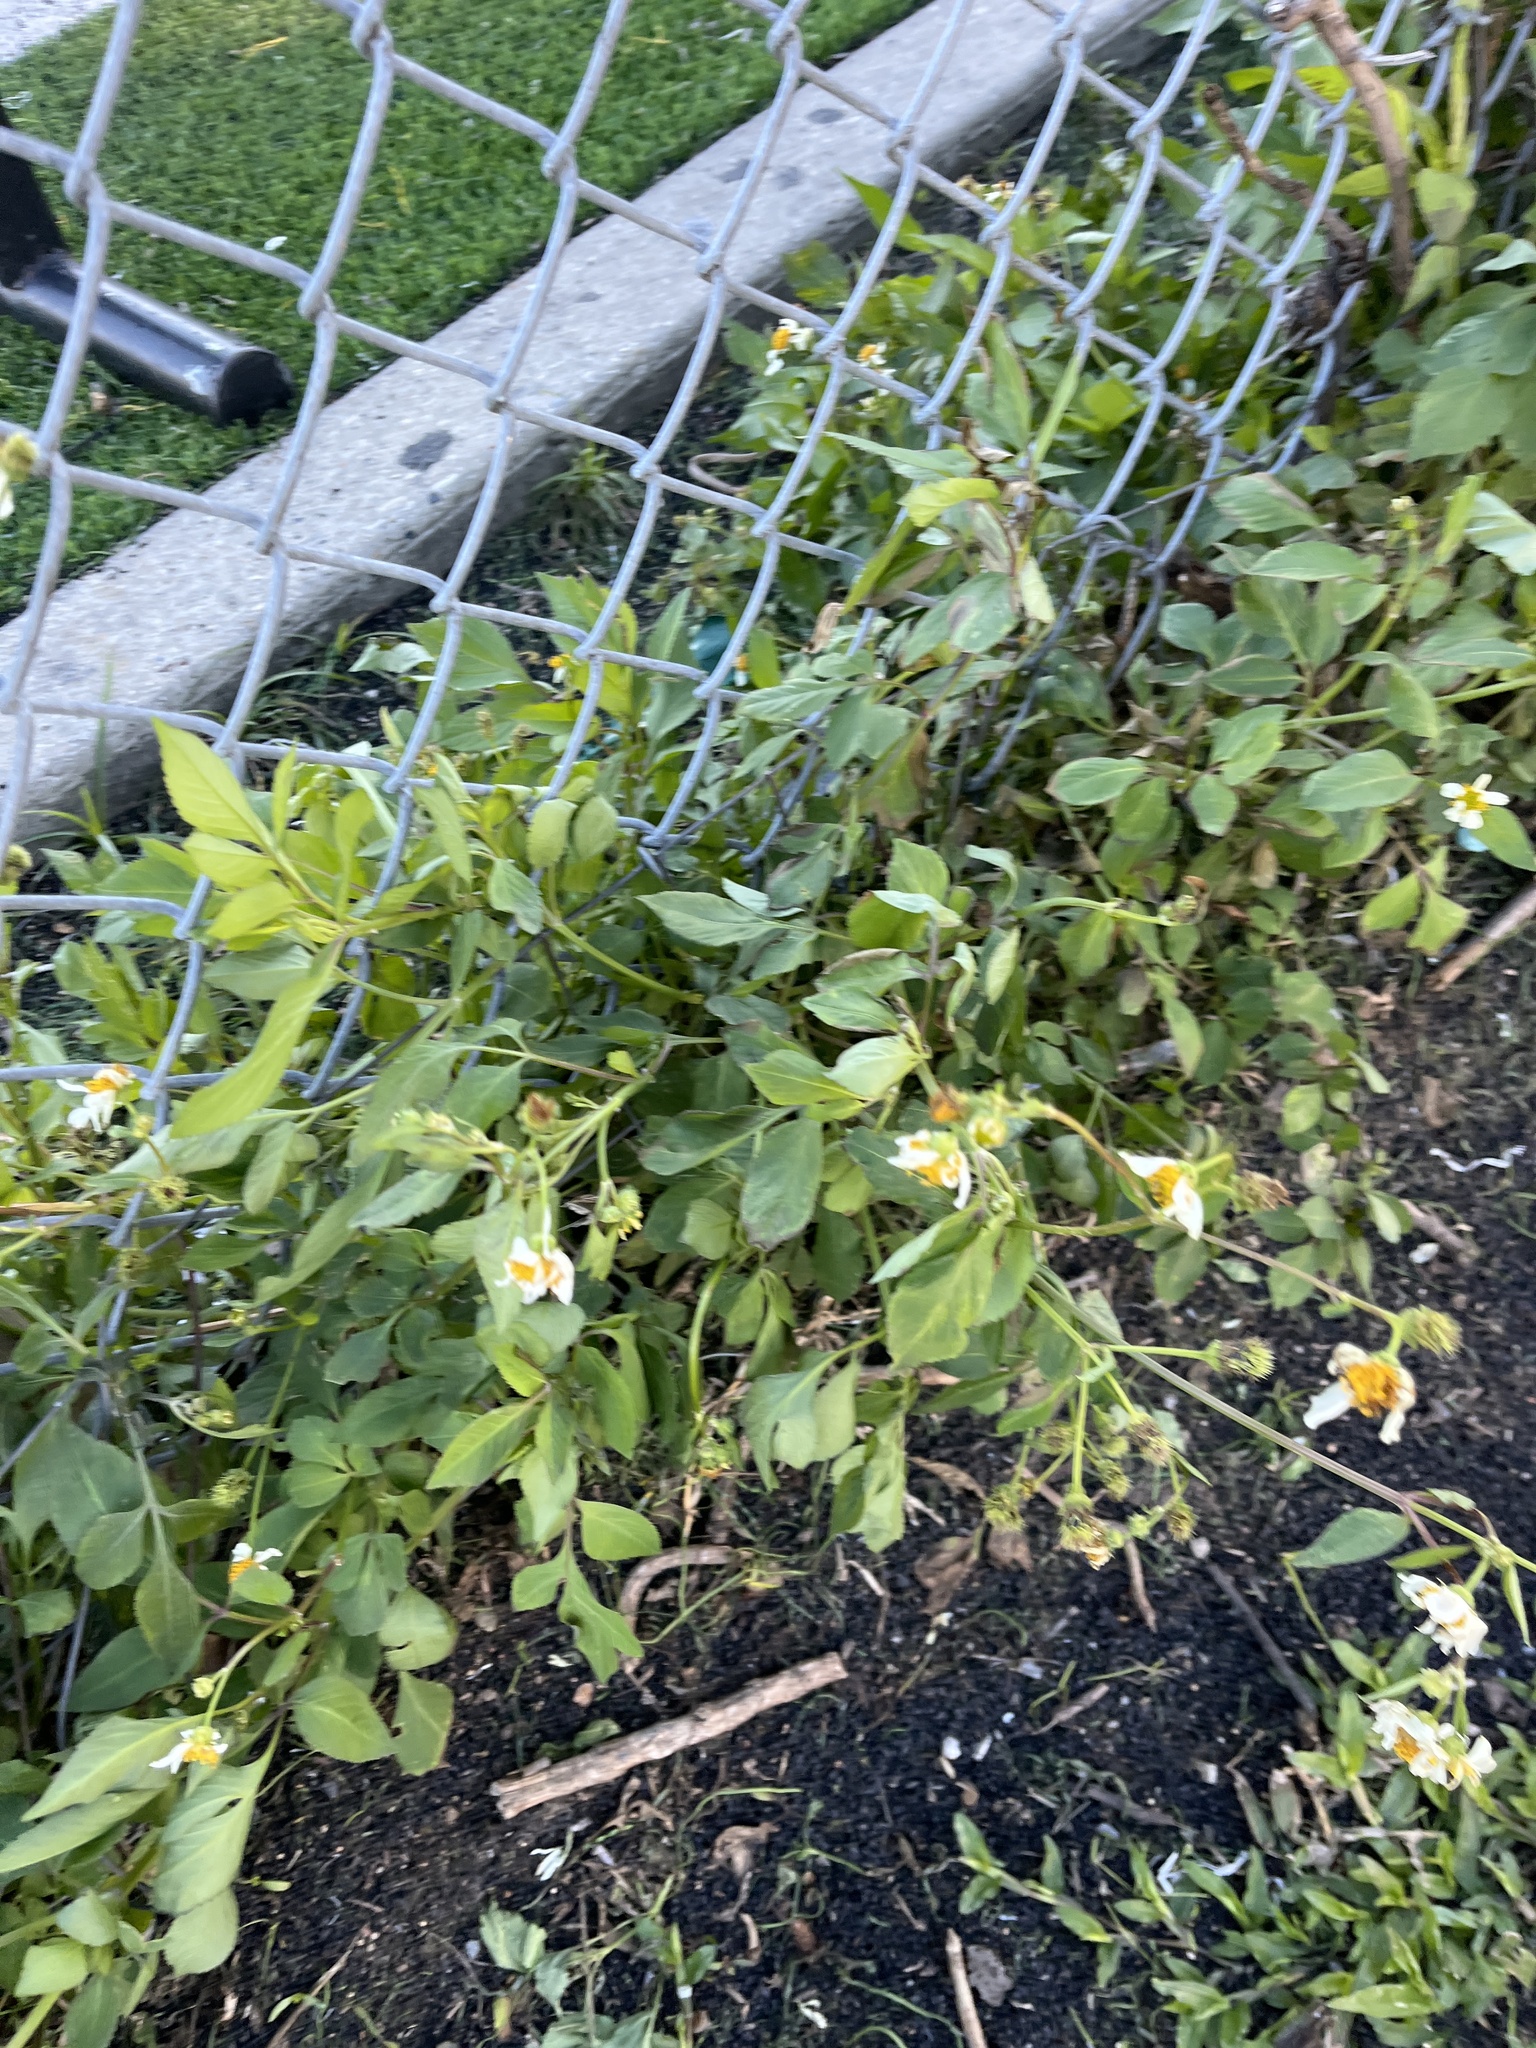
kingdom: Plantae
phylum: Tracheophyta
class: Magnoliopsida
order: Asterales
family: Asteraceae
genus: Bidens
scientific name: Bidens alba
